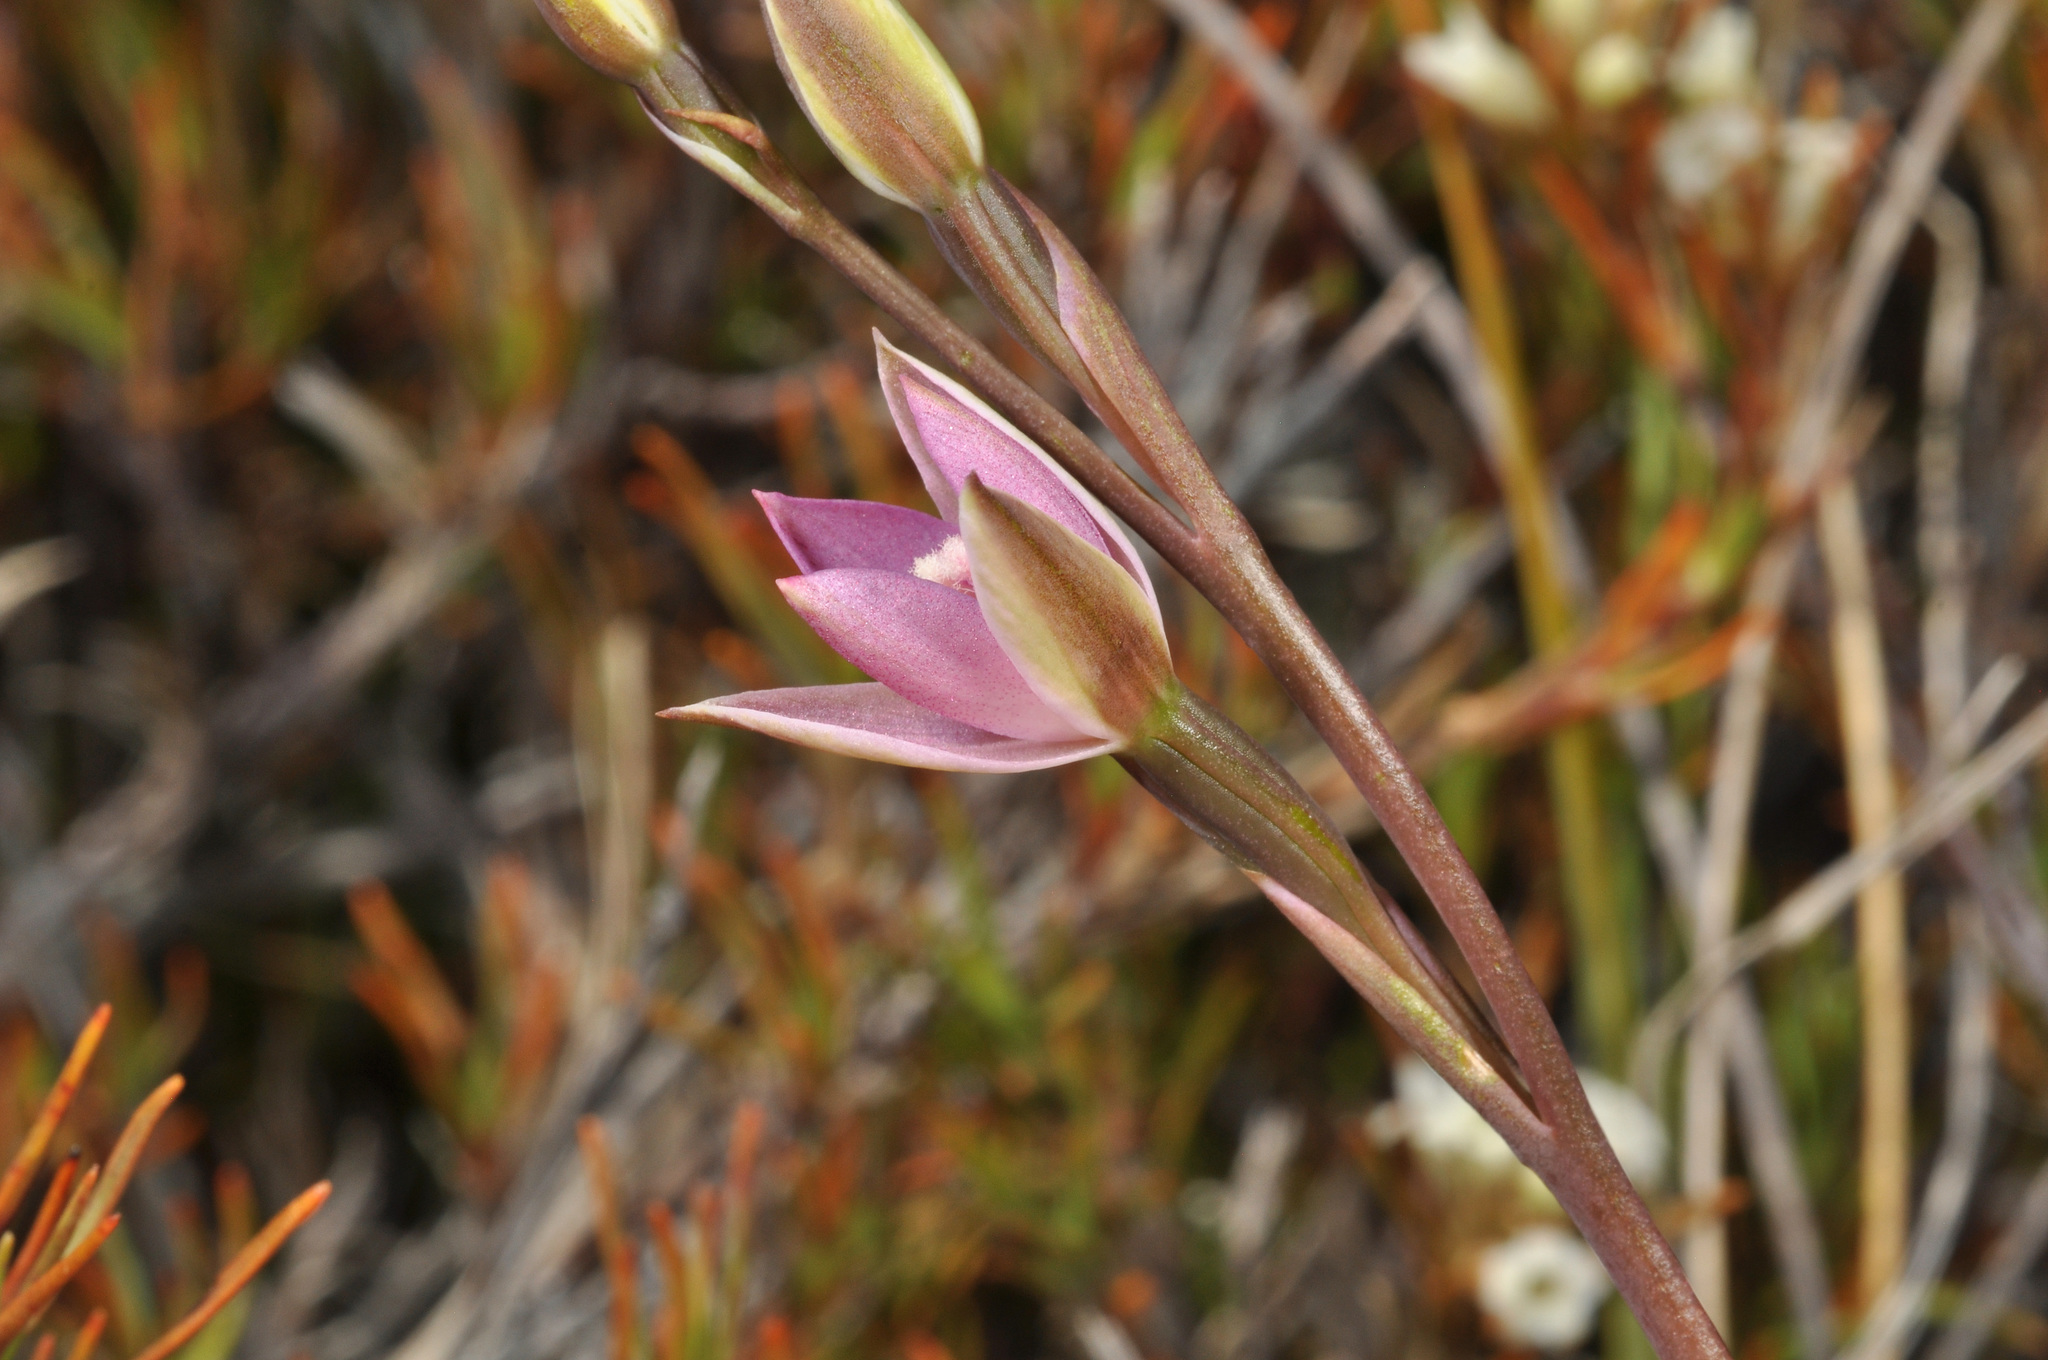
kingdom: Plantae
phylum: Tracheophyta
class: Liliopsida
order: Asparagales
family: Orchidaceae
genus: Thelymitra
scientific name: Thelymitra hatchii
